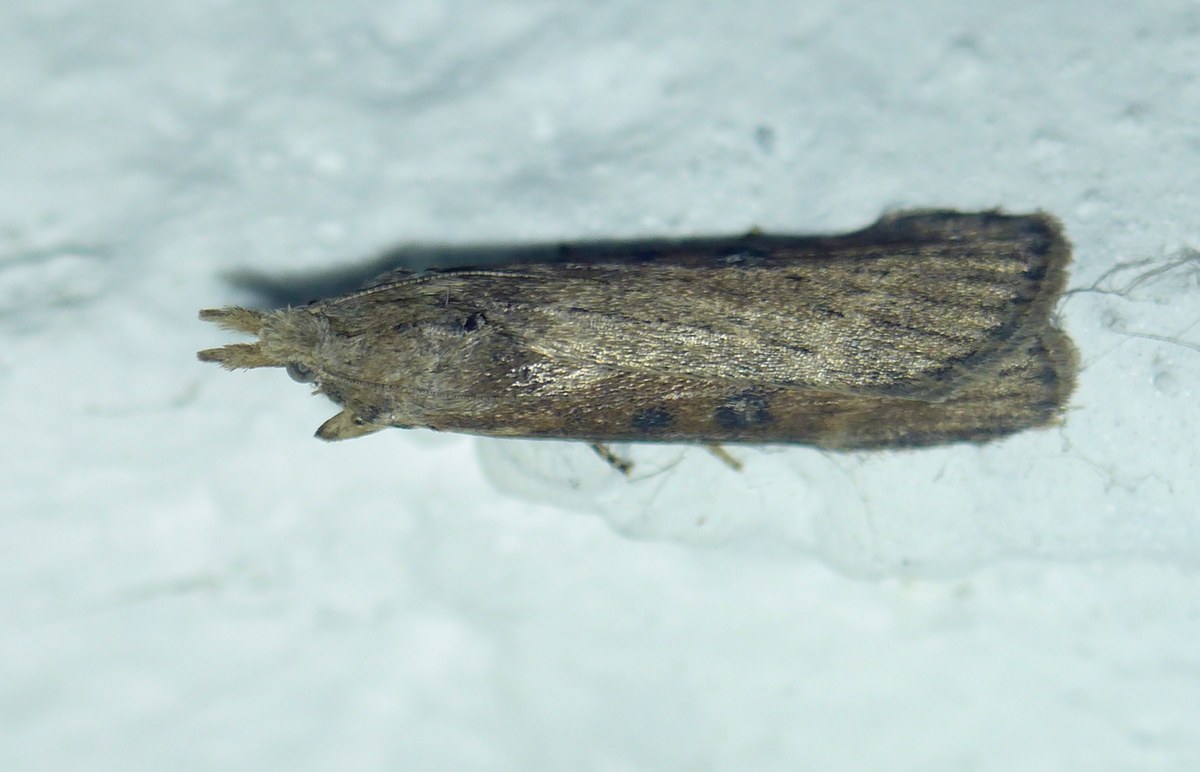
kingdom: Animalia
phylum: Arthropoda
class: Insecta
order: Lepidoptera
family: Pyralidae
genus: Aphomia
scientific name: Aphomia zelleri
